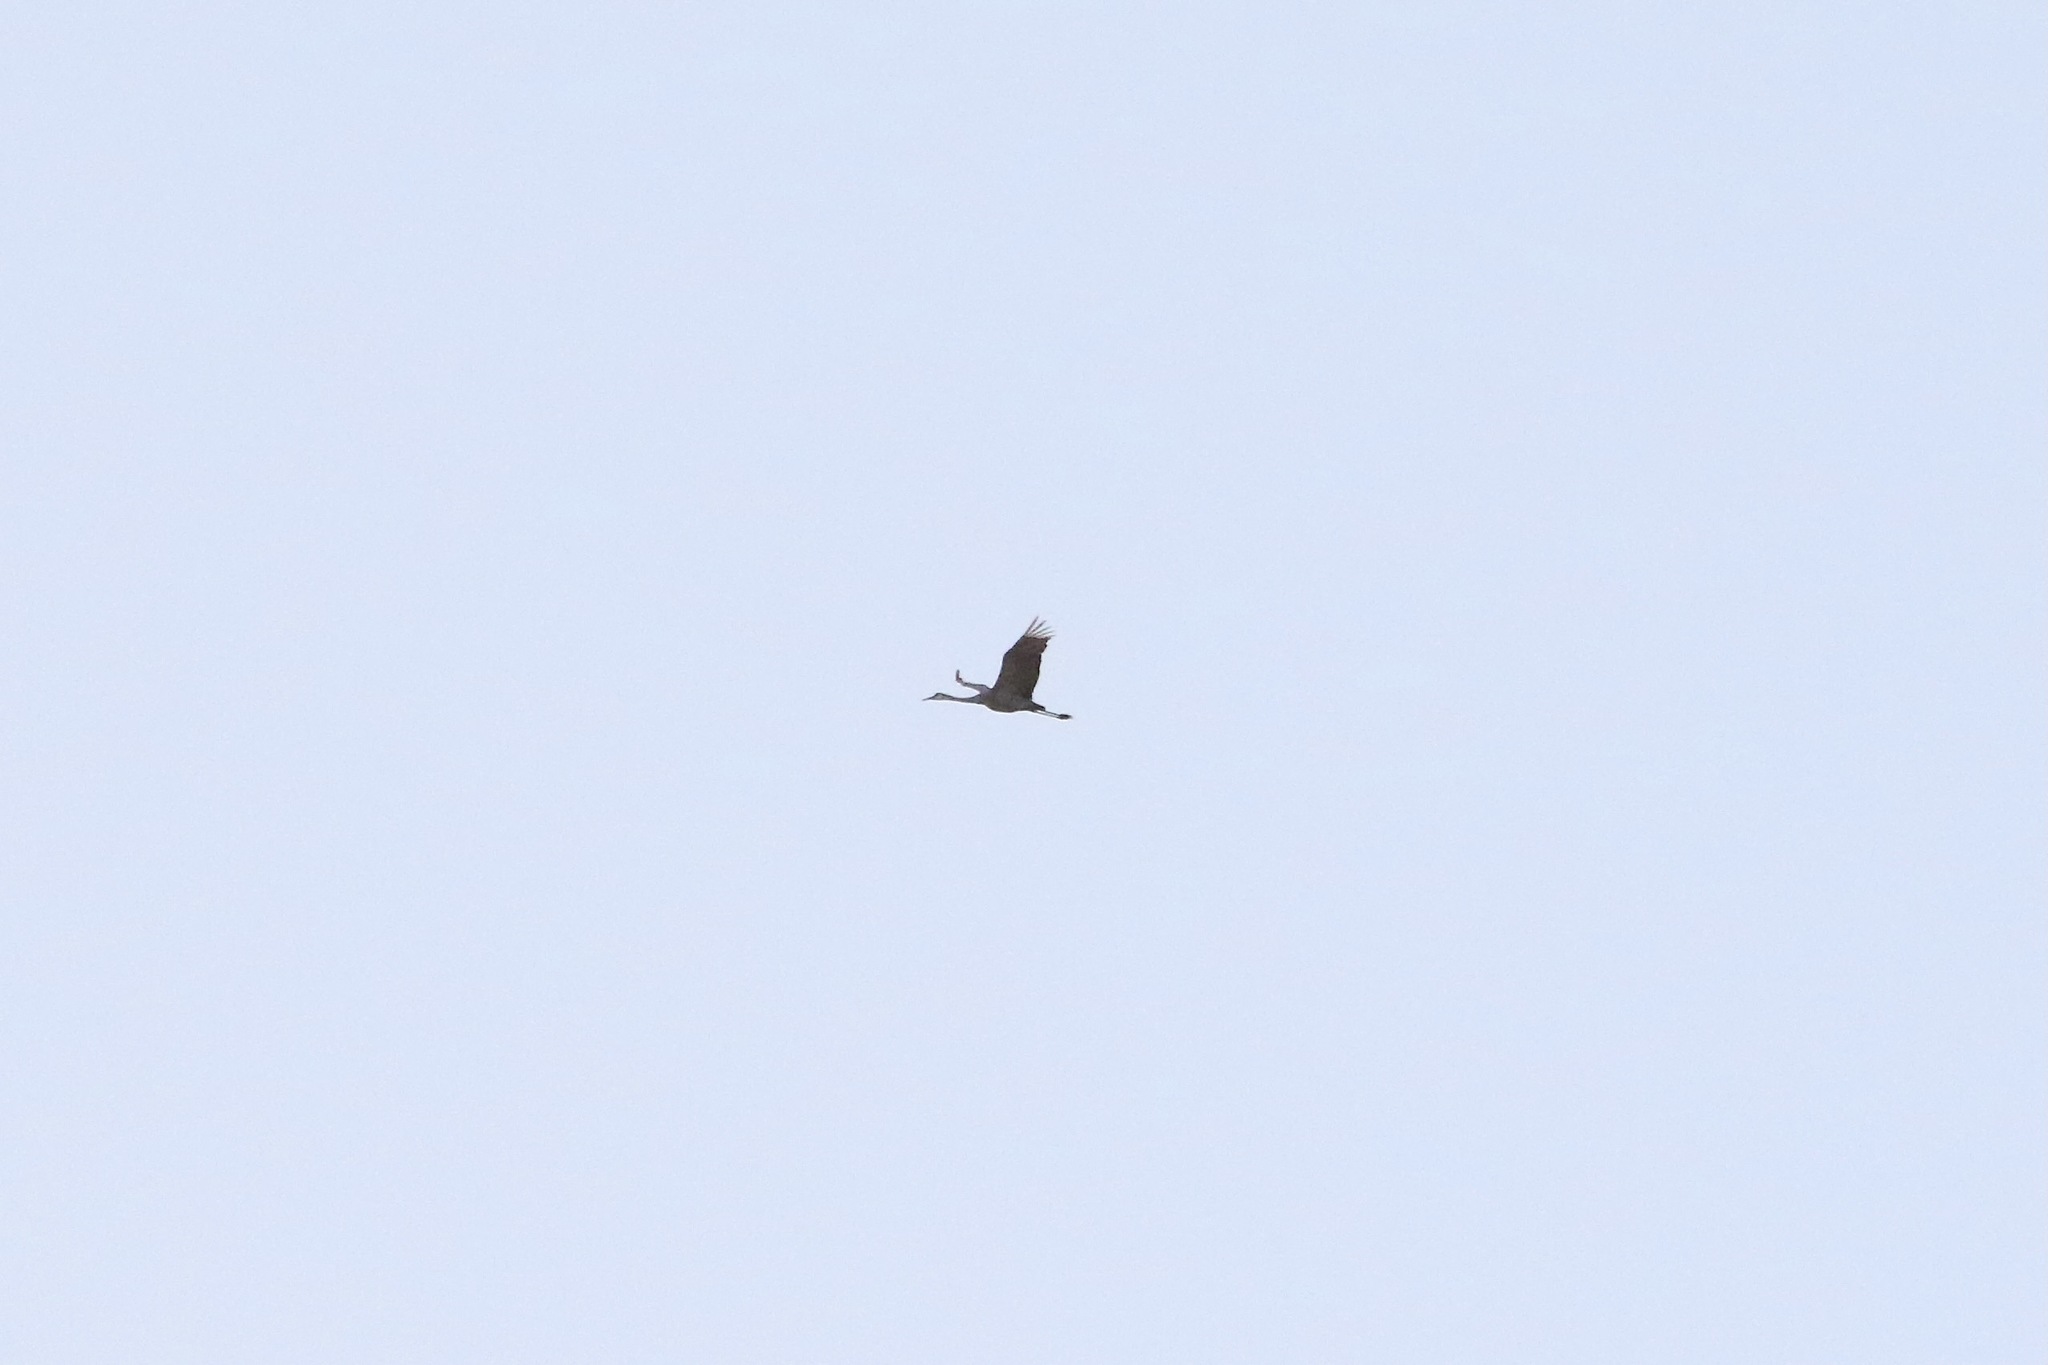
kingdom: Animalia
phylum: Chordata
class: Aves
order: Gruiformes
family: Gruidae
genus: Grus
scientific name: Grus canadensis
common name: Sandhill crane
